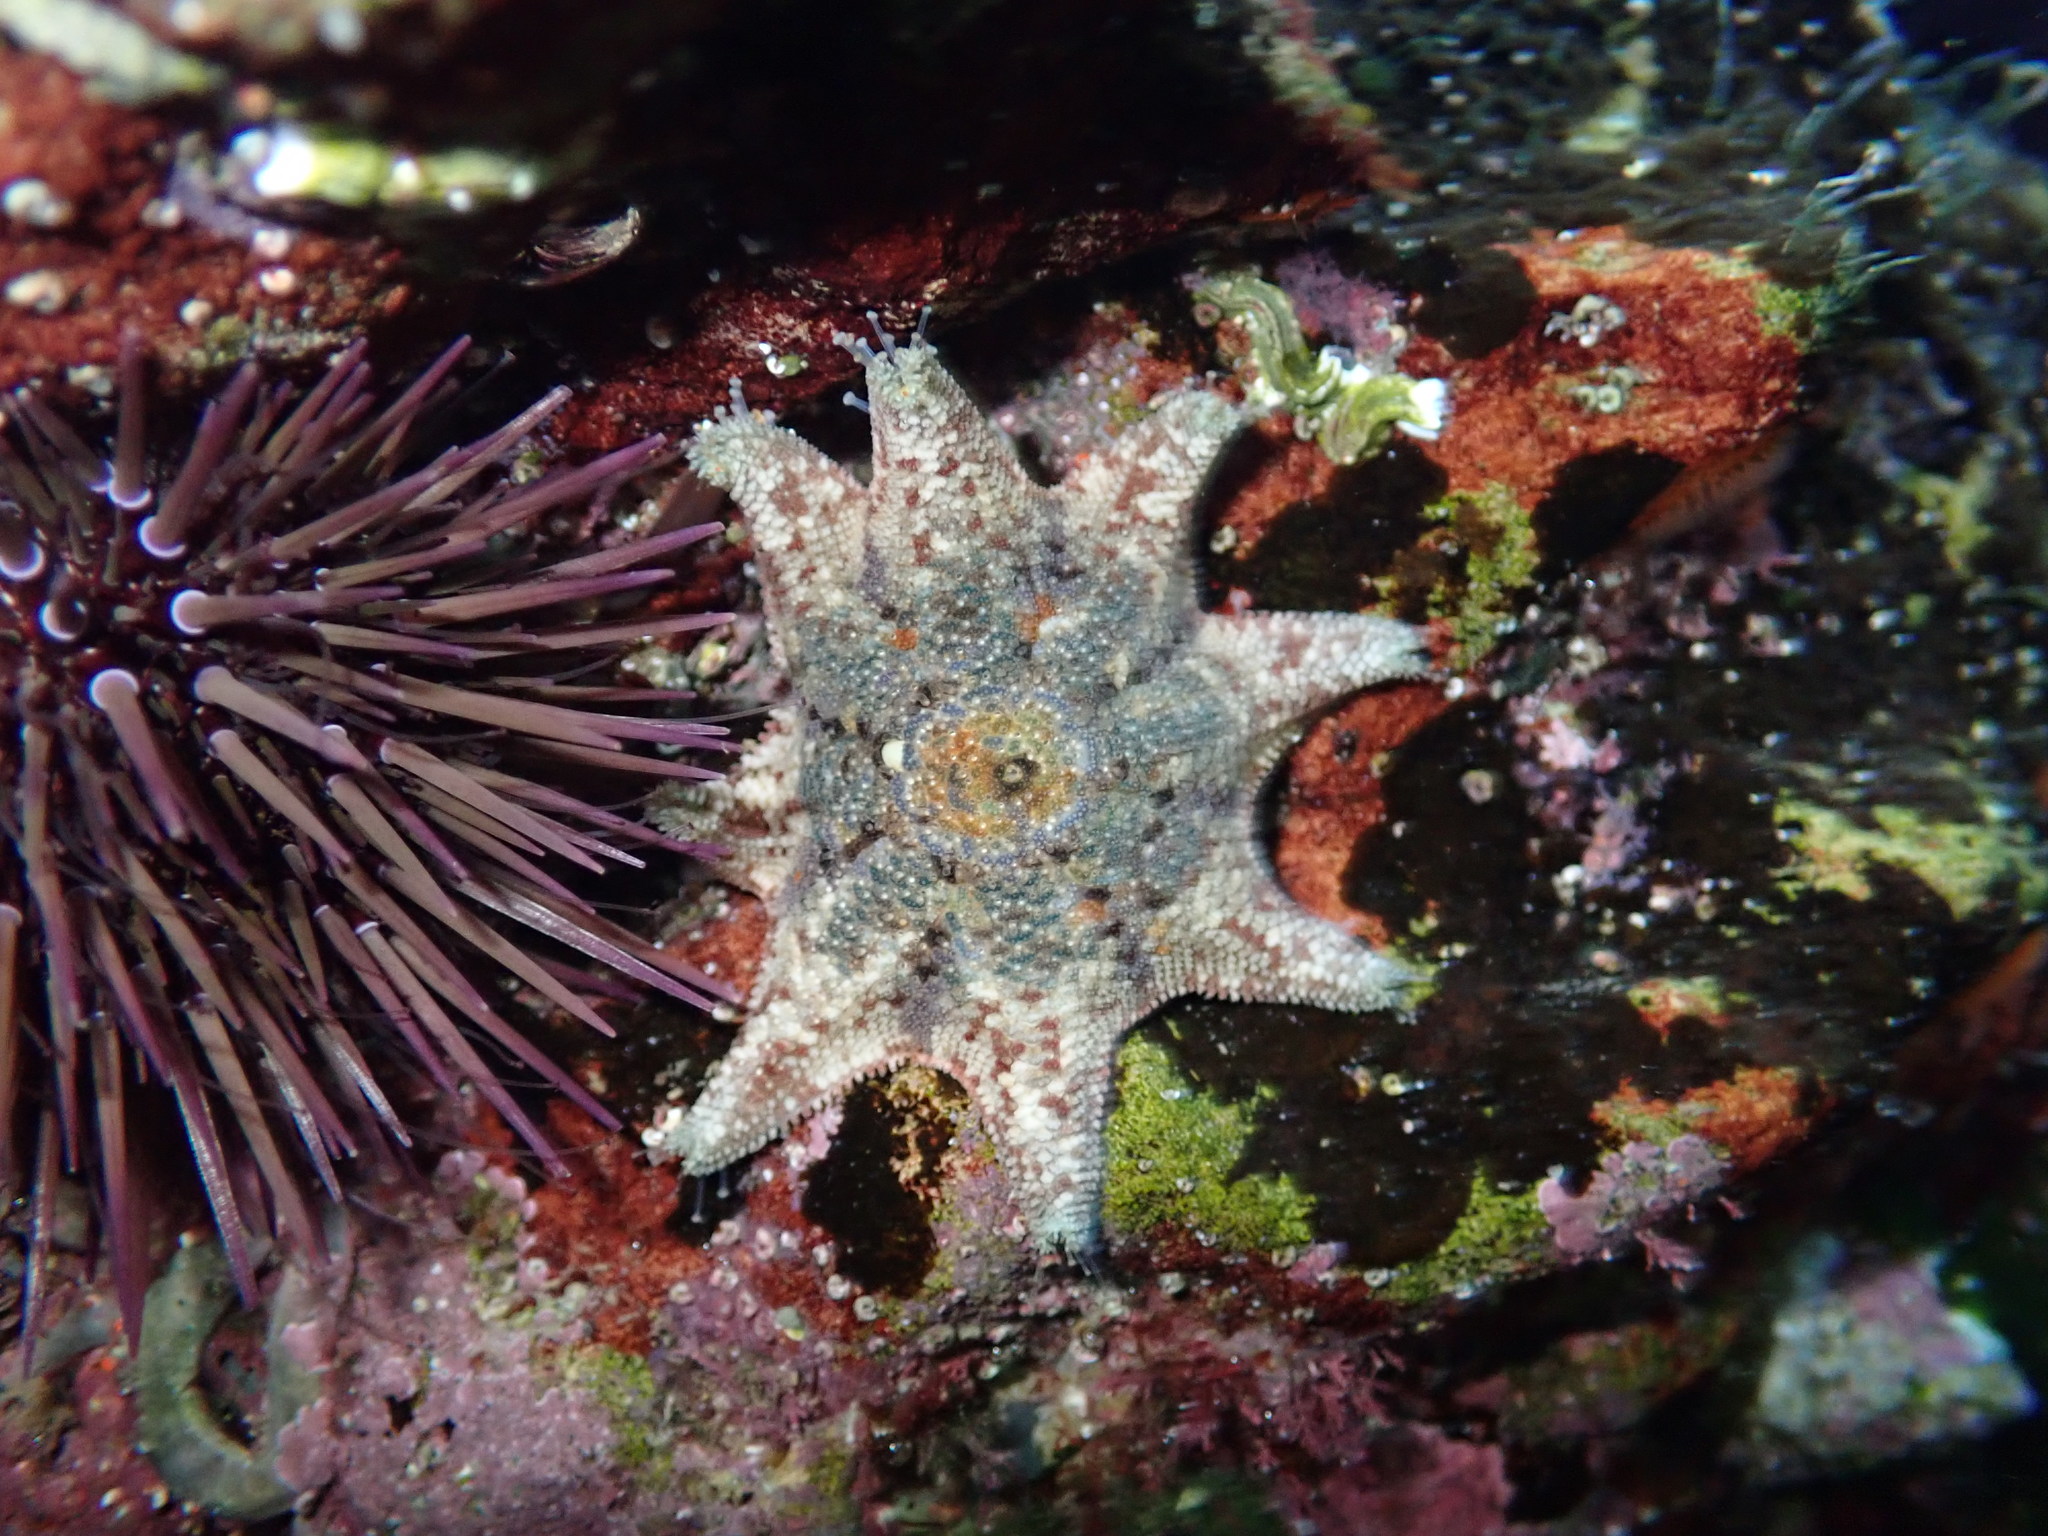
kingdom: Animalia
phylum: Echinodermata
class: Asteroidea
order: Valvatida
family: Asterinidae
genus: Meridiastra
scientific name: Meridiastra calcar
